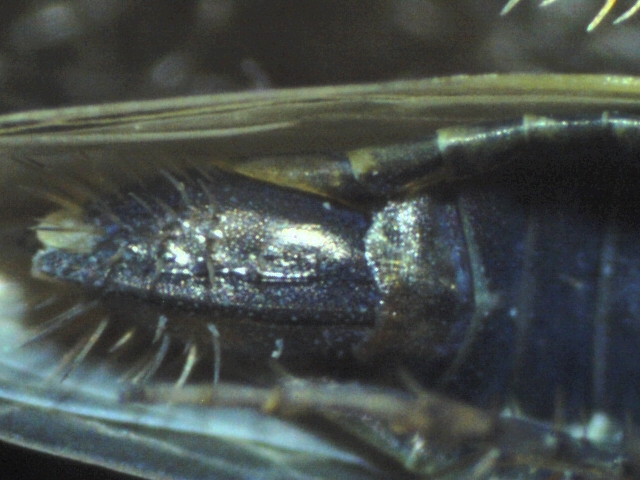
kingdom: Animalia
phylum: Arthropoda
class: Insecta
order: Hemiptera
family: Cicadellidae
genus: Graminella
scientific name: Graminella nigrifrons
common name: Blackfaced leafhopper
